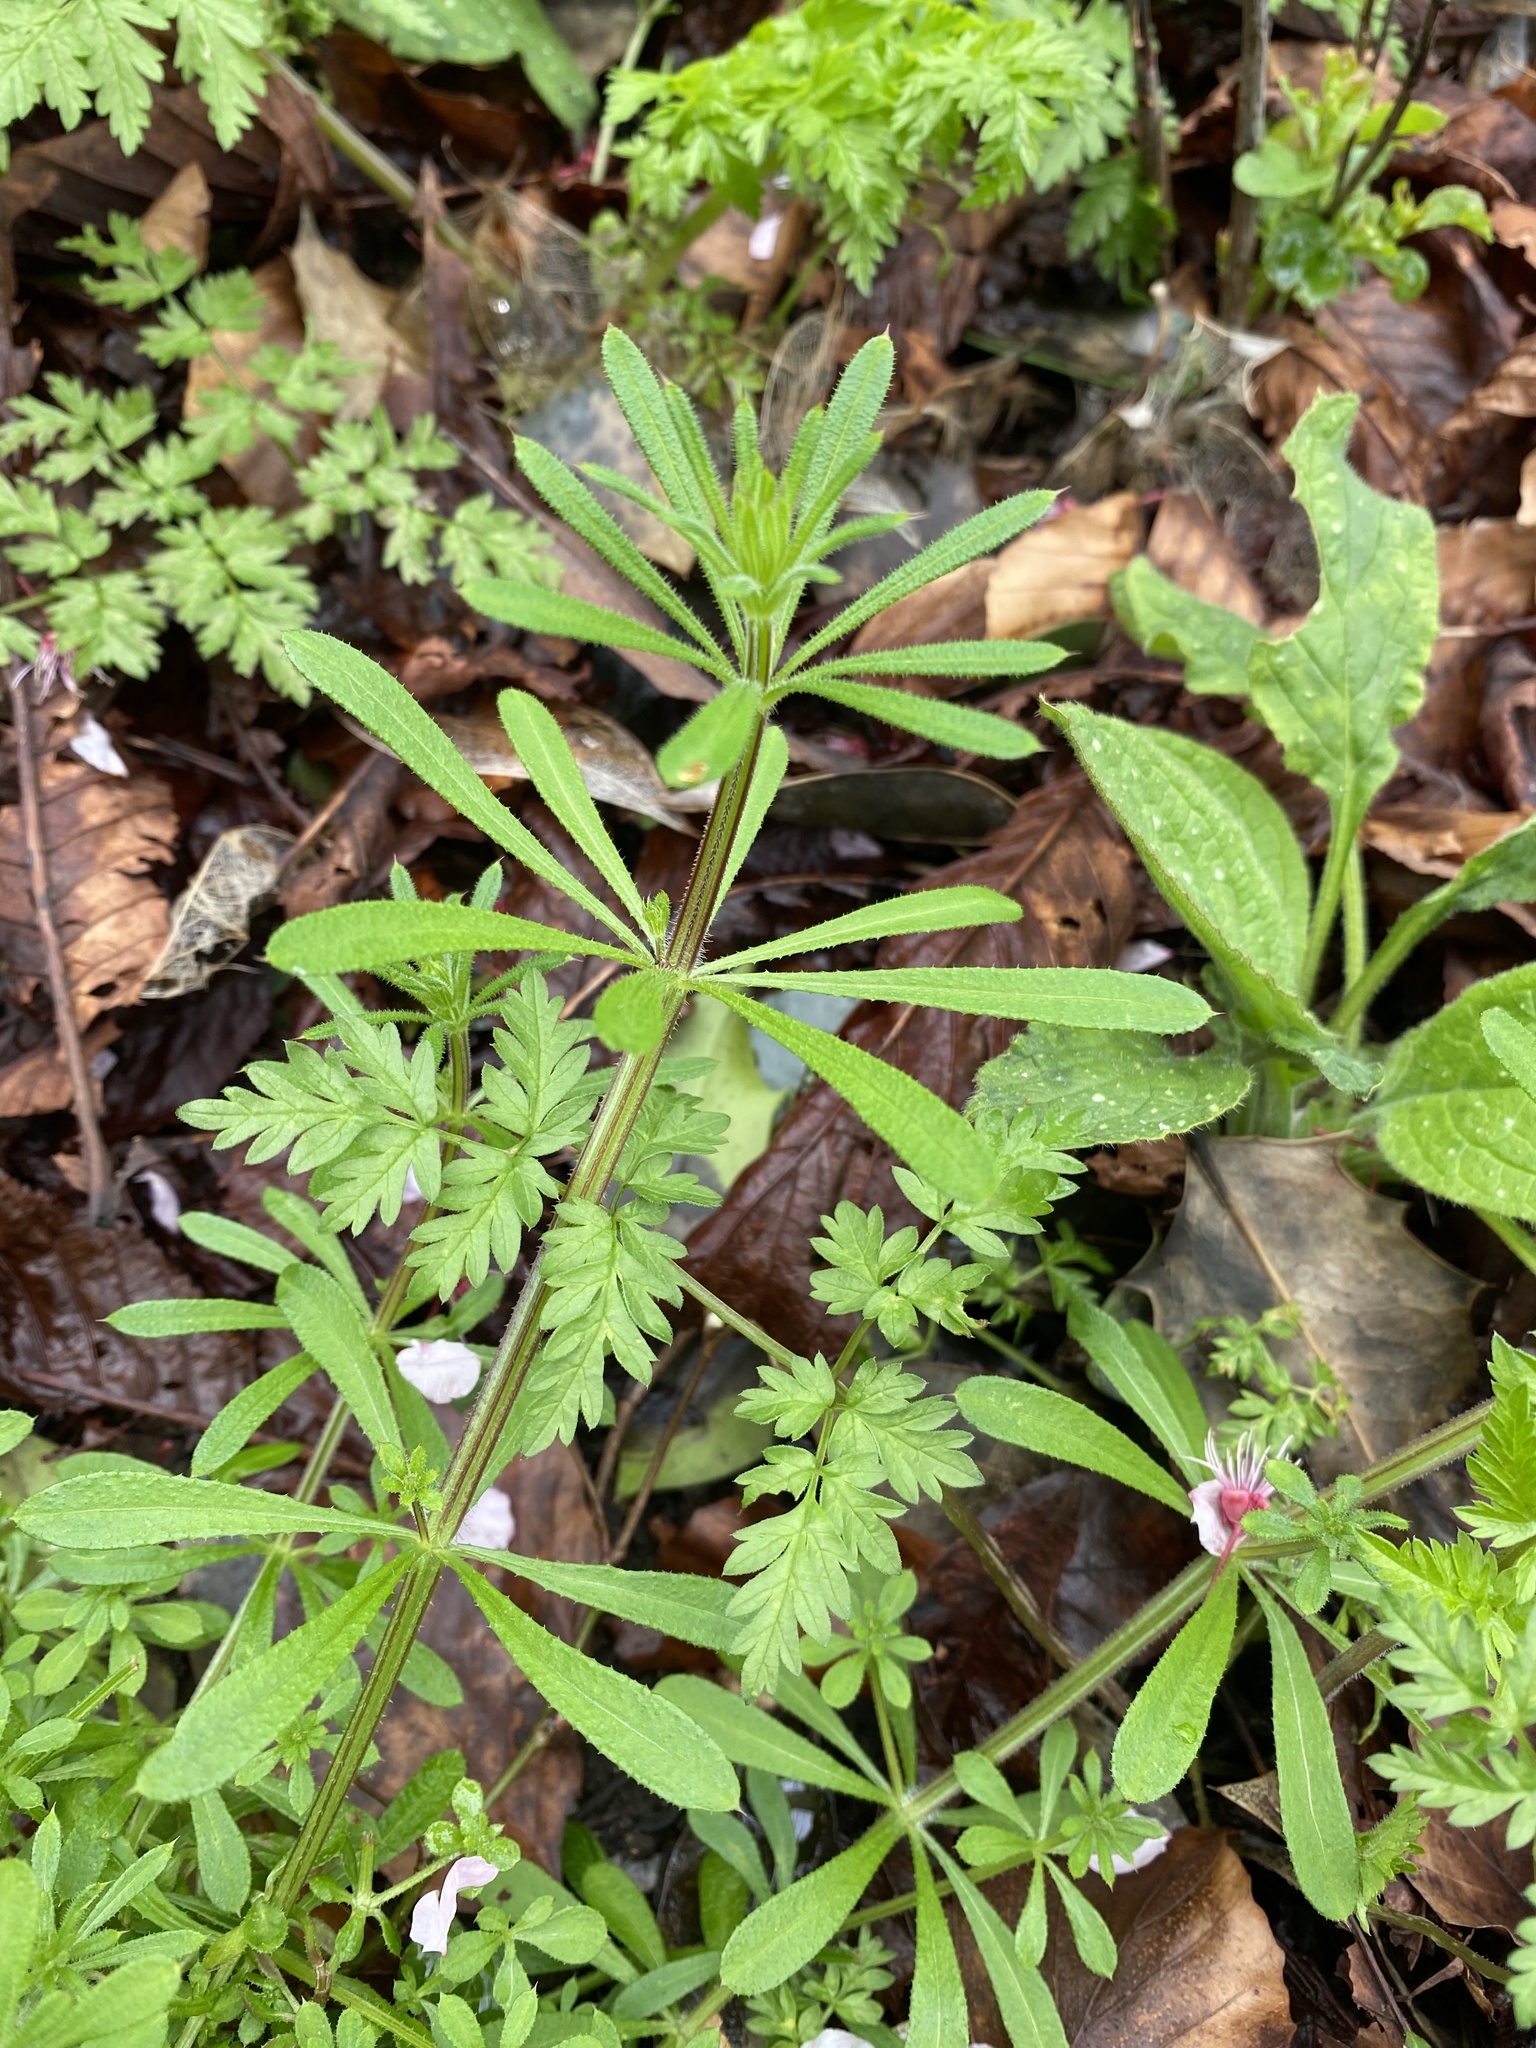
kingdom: Plantae
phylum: Tracheophyta
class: Magnoliopsida
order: Gentianales
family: Rubiaceae
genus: Galium
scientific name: Galium aparine
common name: Cleavers
